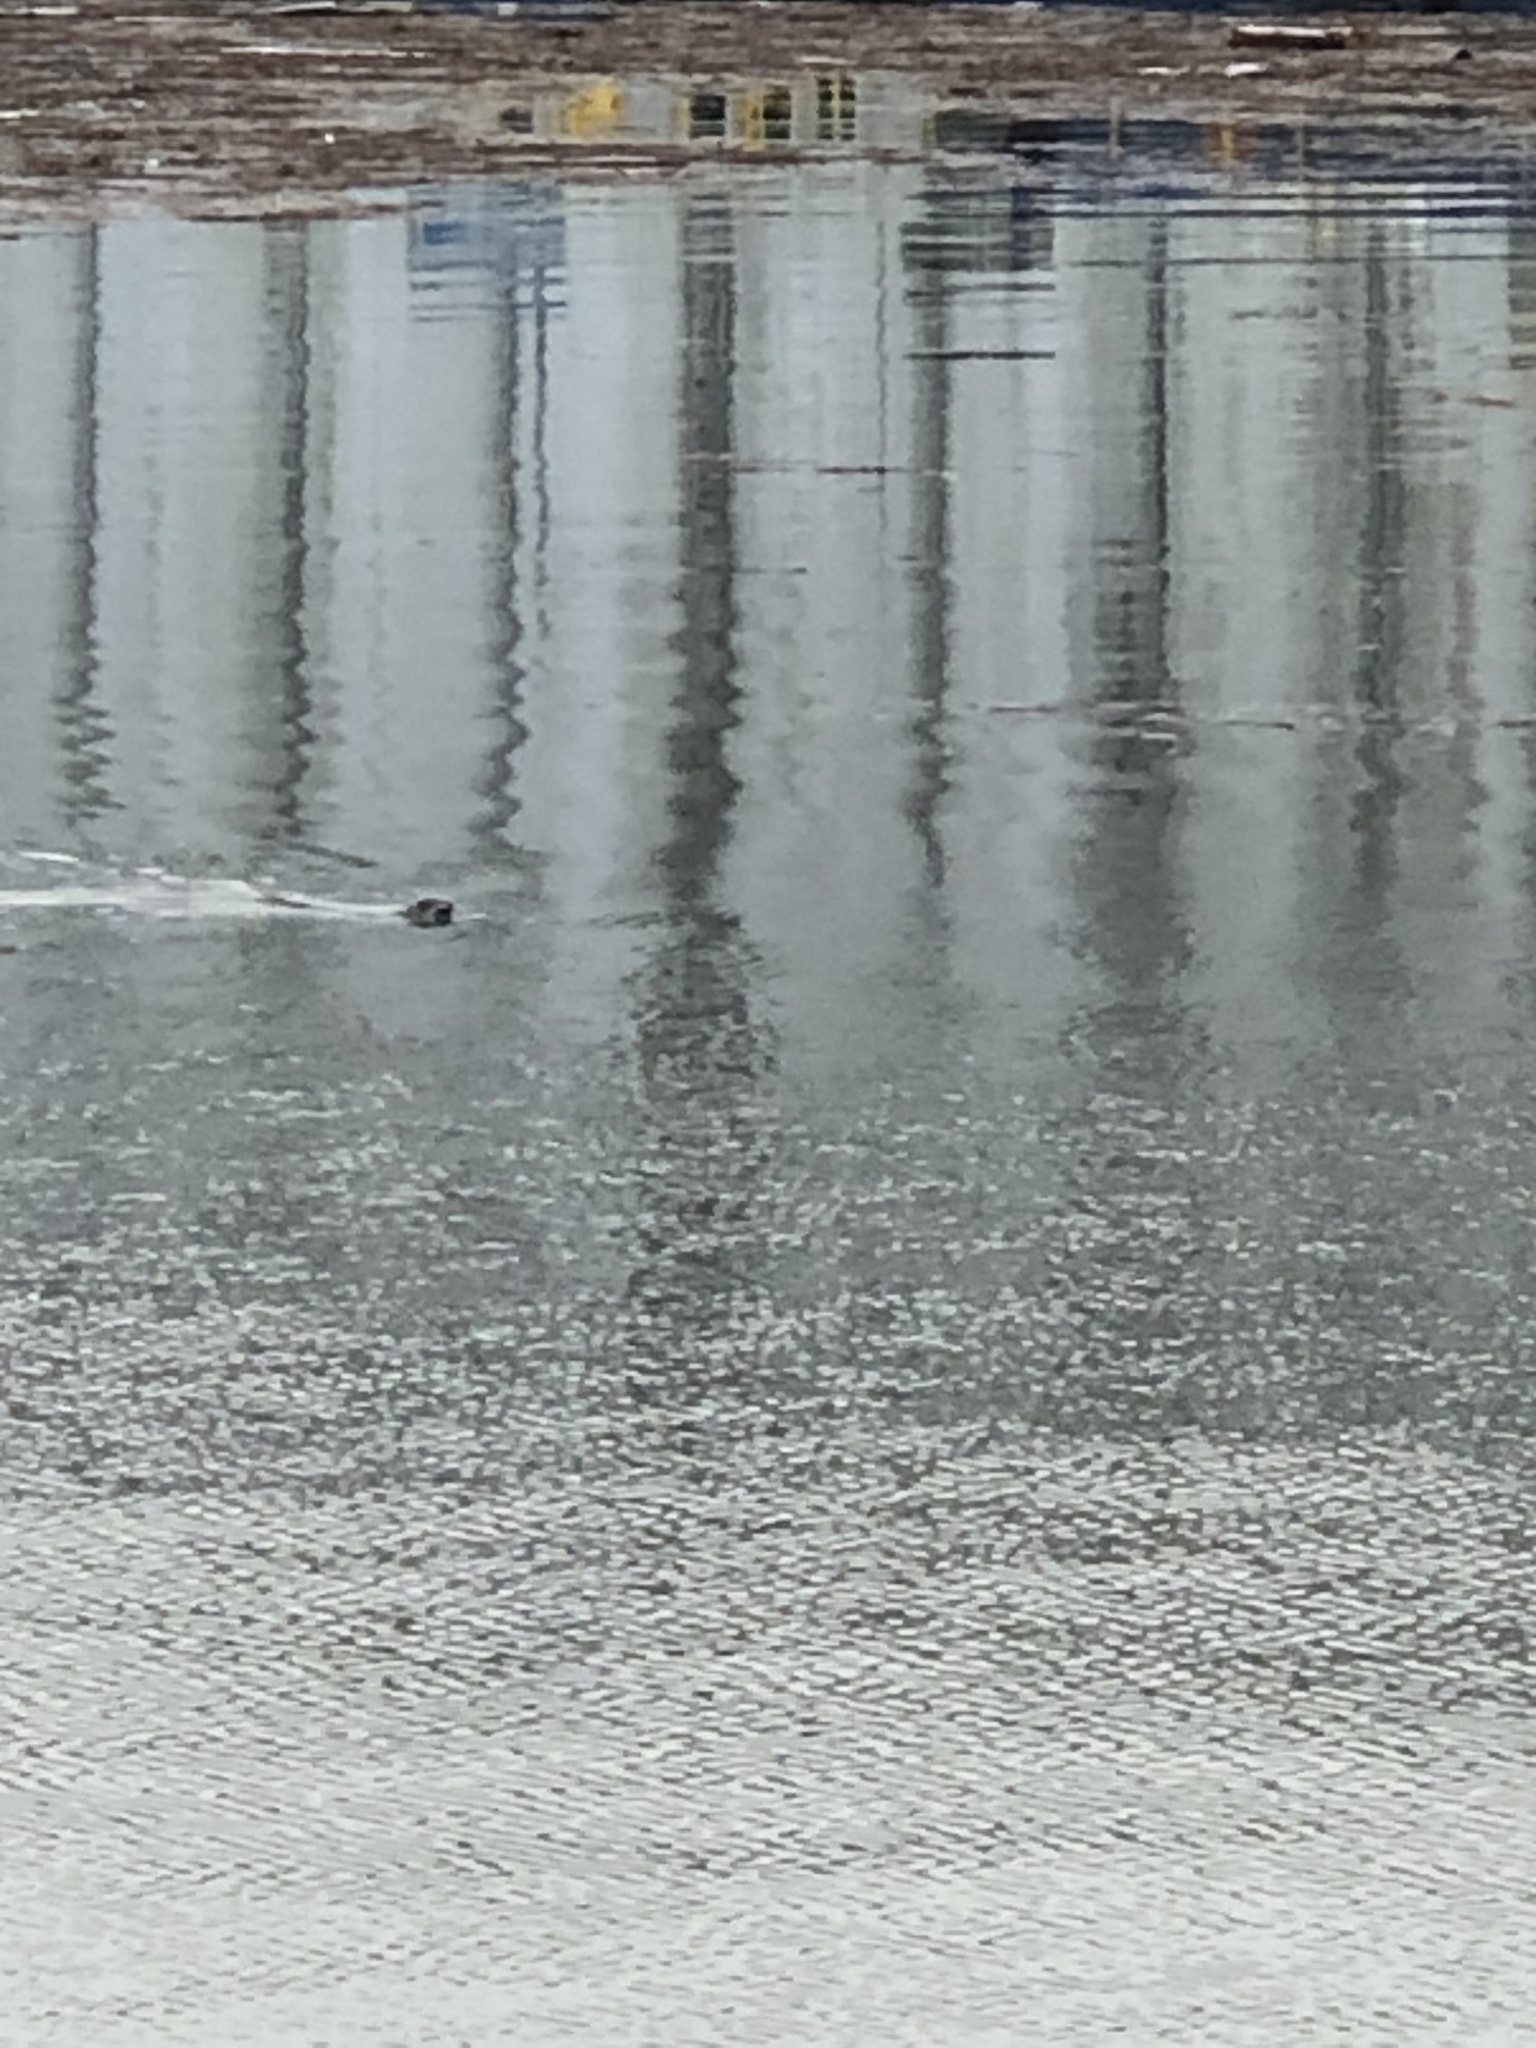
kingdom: Animalia
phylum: Chordata
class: Mammalia
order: Carnivora
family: Phocidae
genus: Phoca
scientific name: Phoca vitulina
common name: Harbor seal
